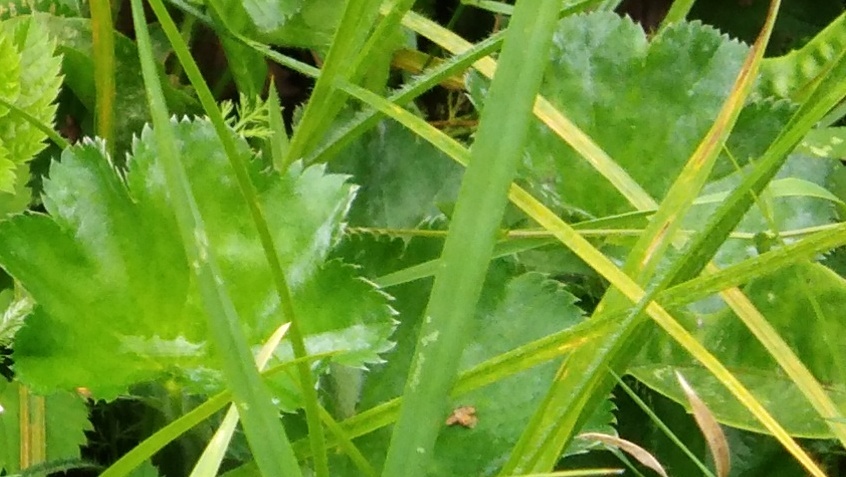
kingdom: Plantae
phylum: Tracheophyta
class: Magnoliopsida
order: Rosales
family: Rosaceae
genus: Alchemilla
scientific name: Alchemilla
